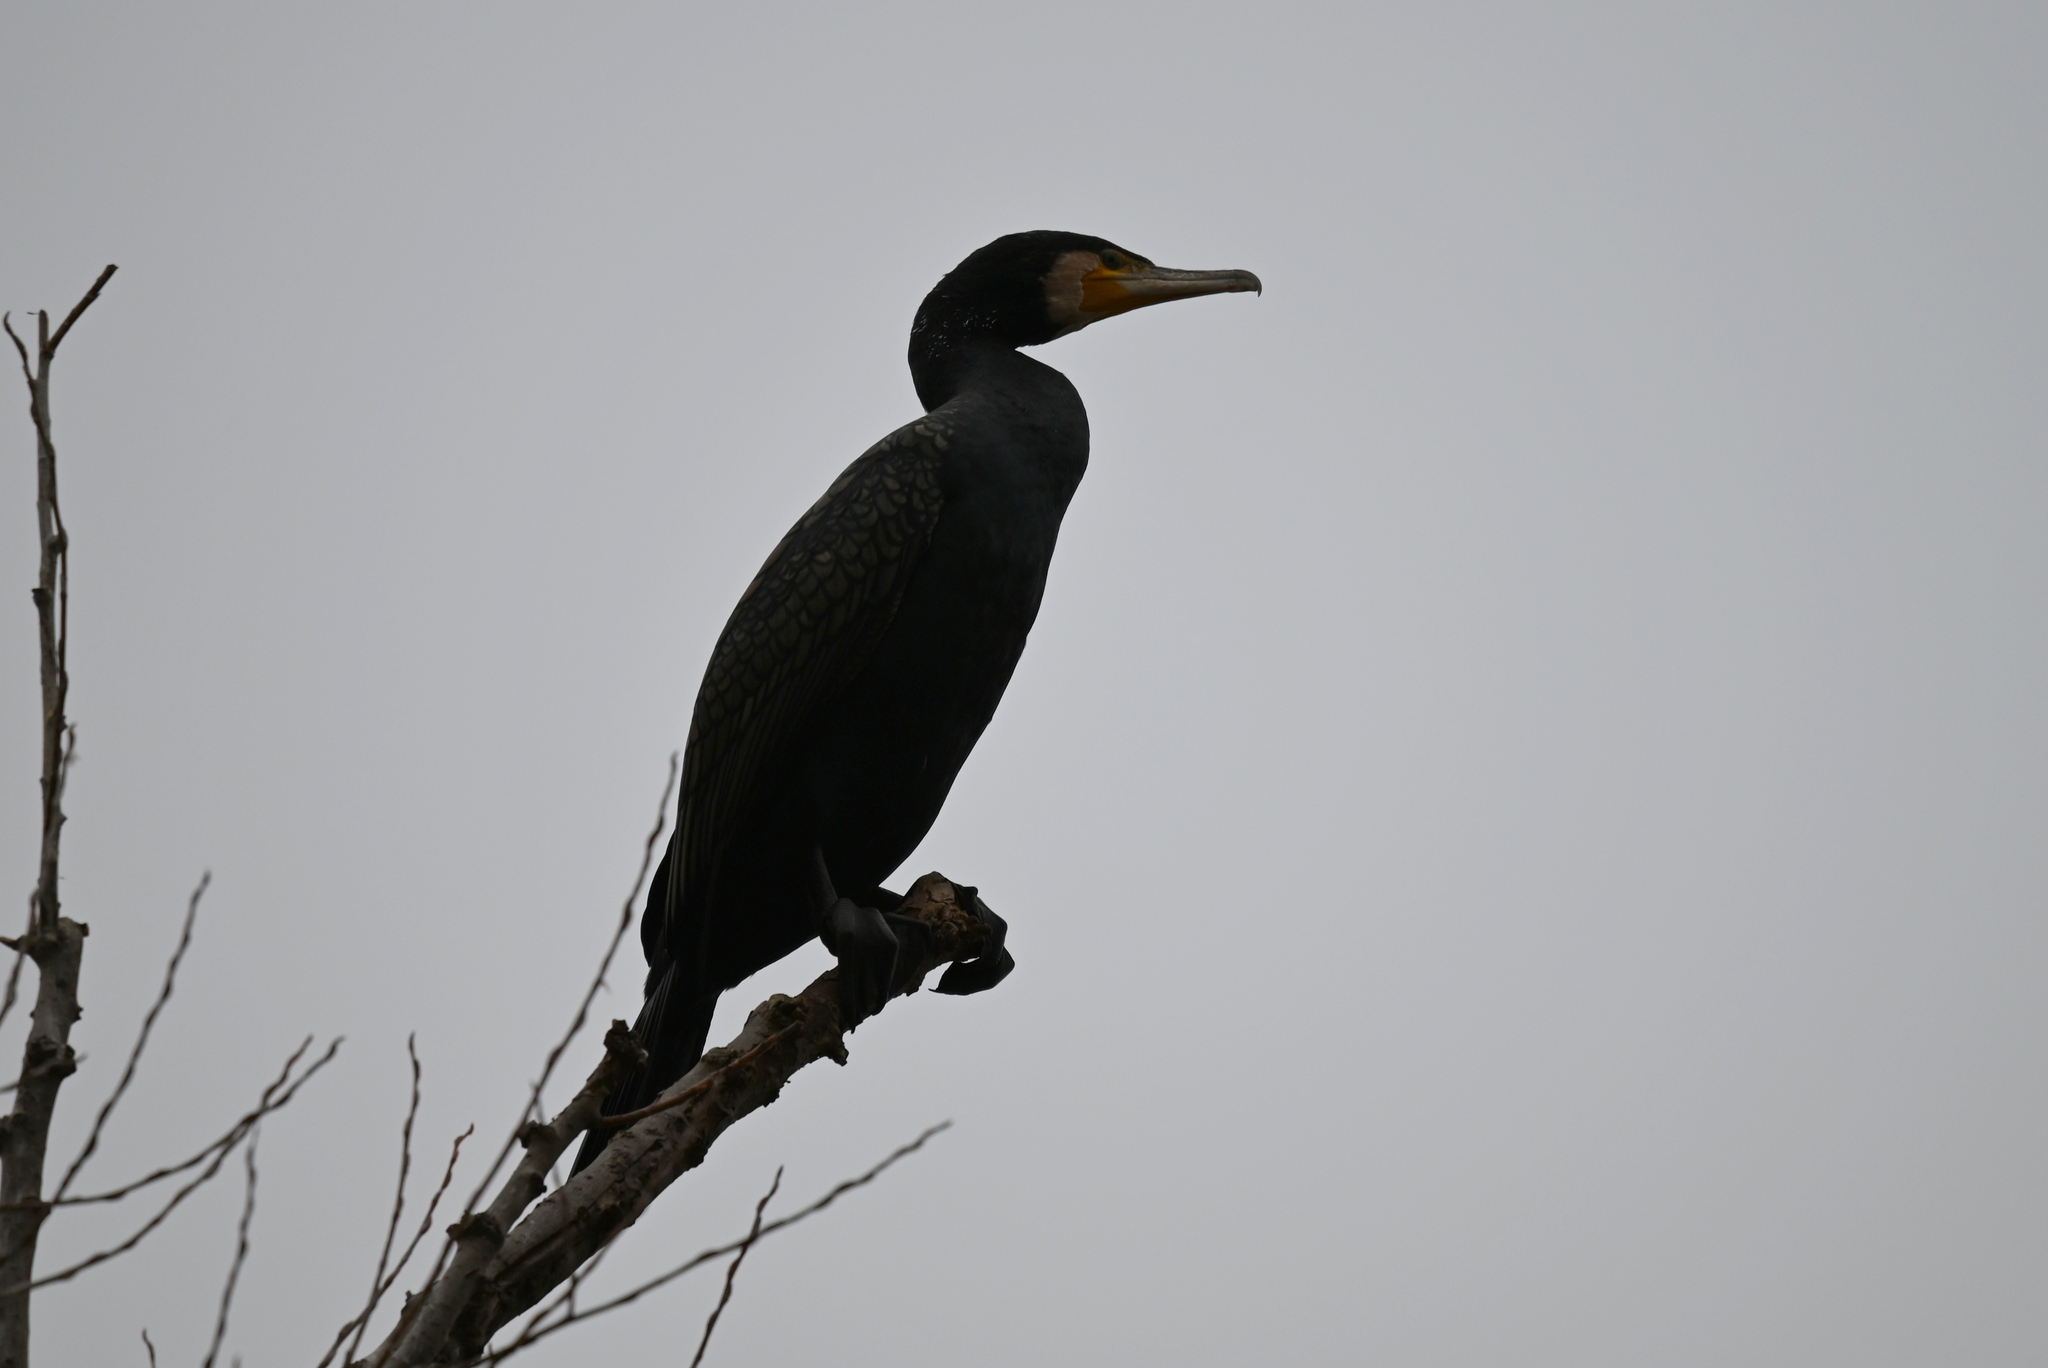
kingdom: Animalia
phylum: Chordata
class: Aves
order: Suliformes
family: Phalacrocoracidae
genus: Phalacrocorax
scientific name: Phalacrocorax carbo
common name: Great cormorant
